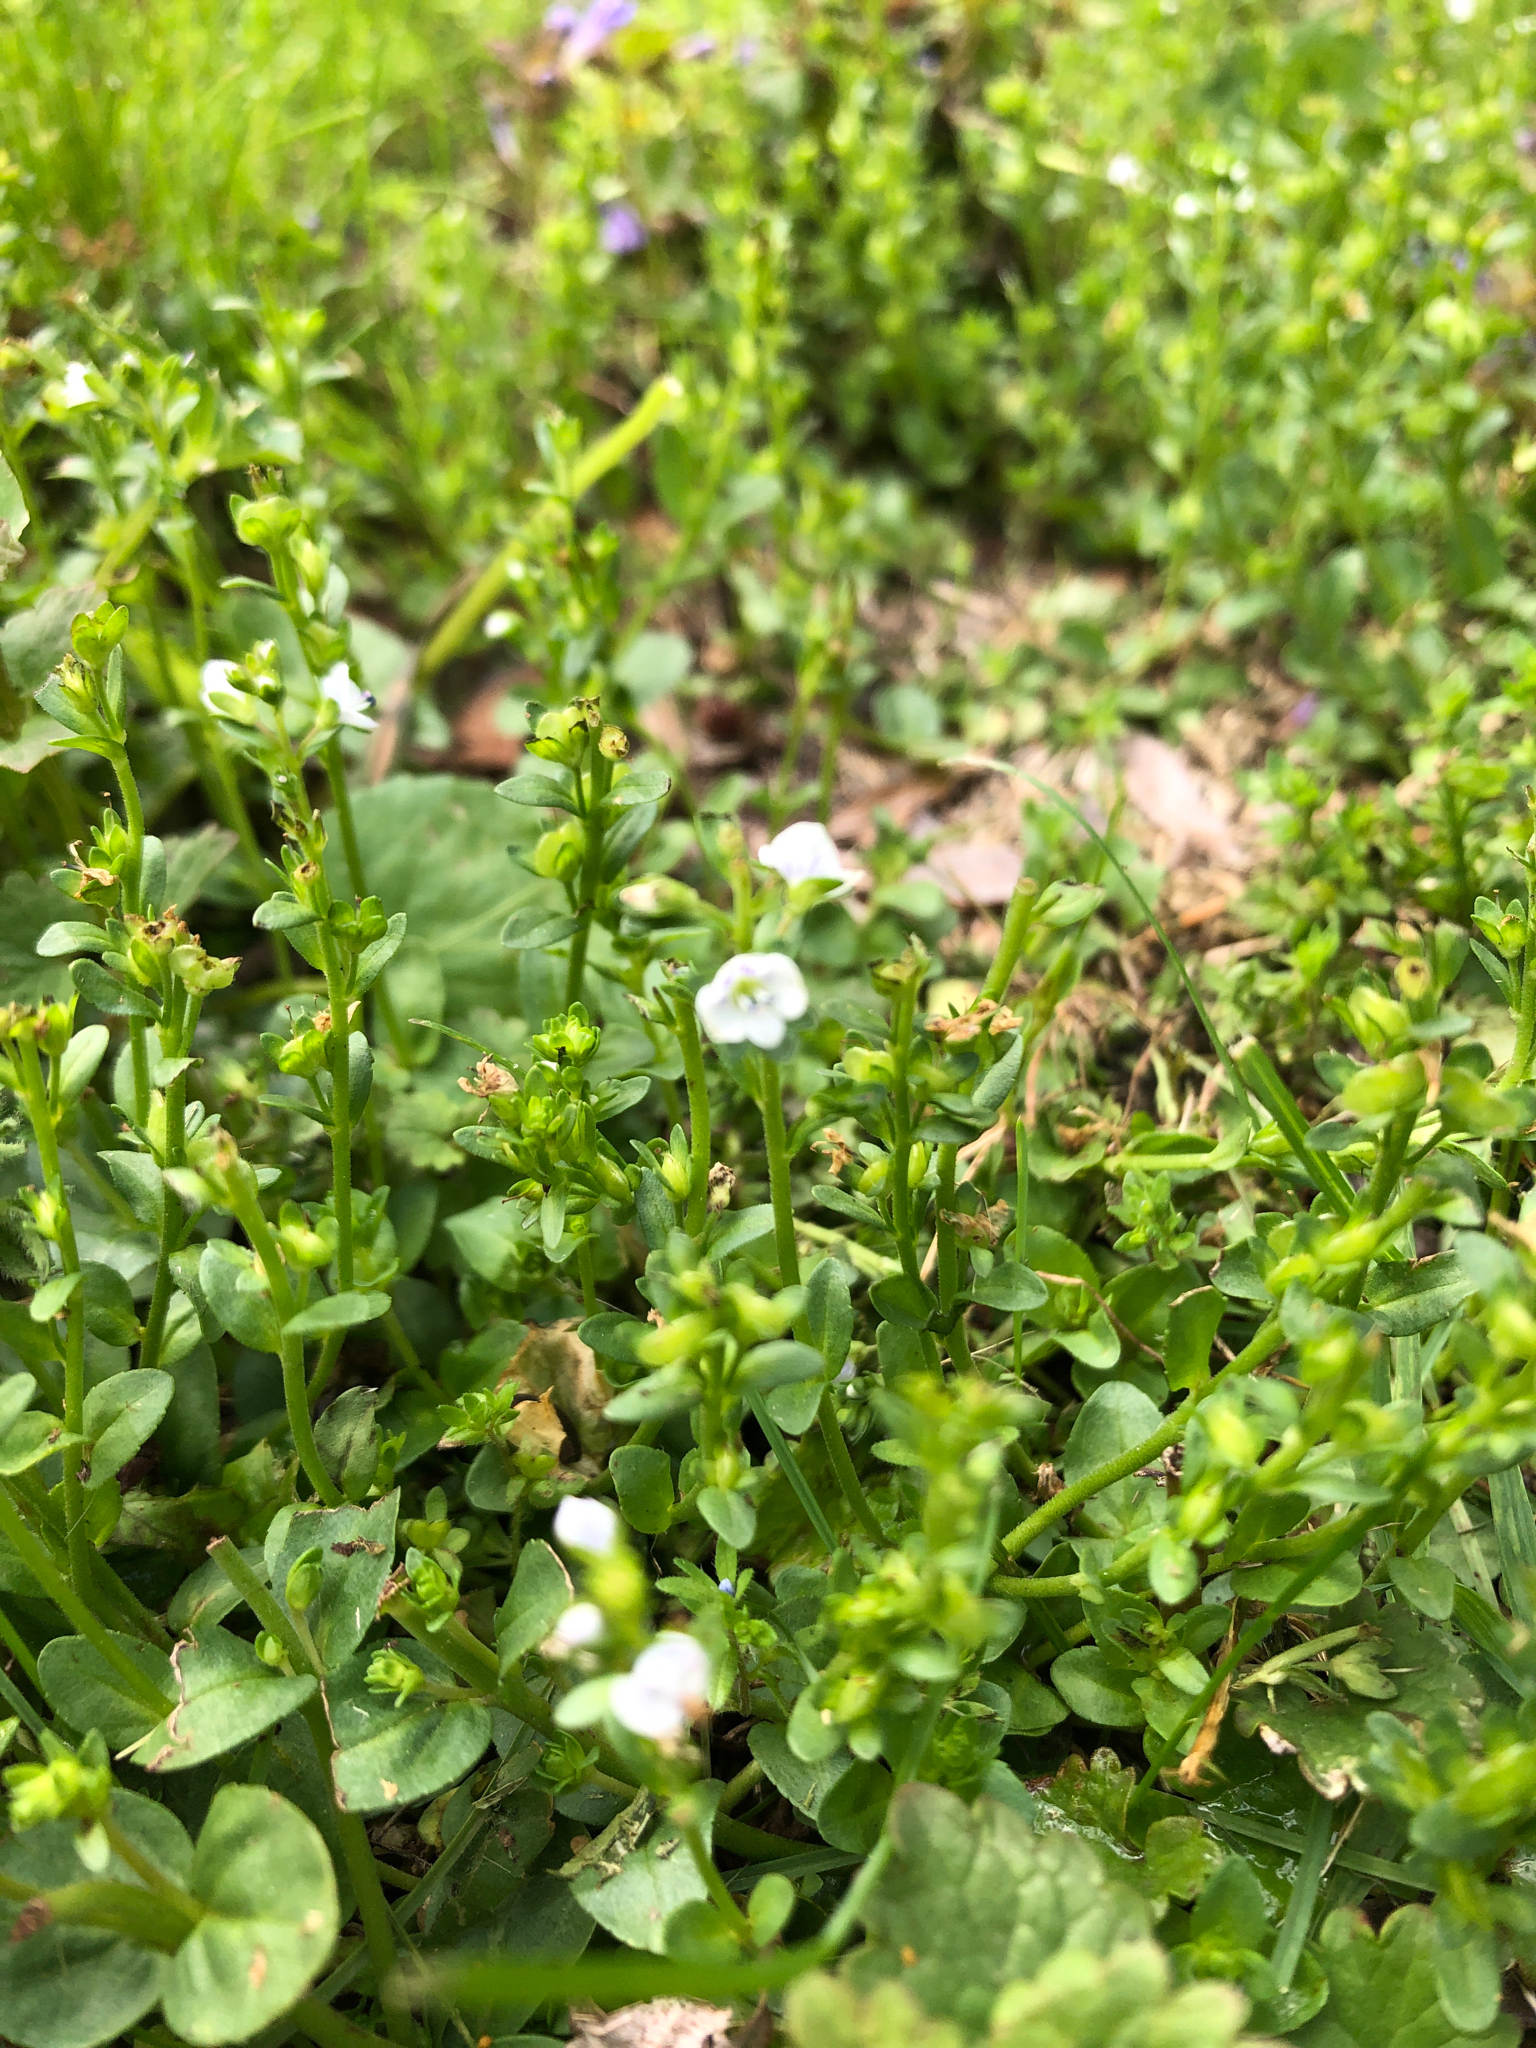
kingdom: Plantae
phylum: Tracheophyta
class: Magnoliopsida
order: Lamiales
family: Plantaginaceae
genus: Veronica
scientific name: Veronica serpyllifolia
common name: Thyme-leaved speedwell
